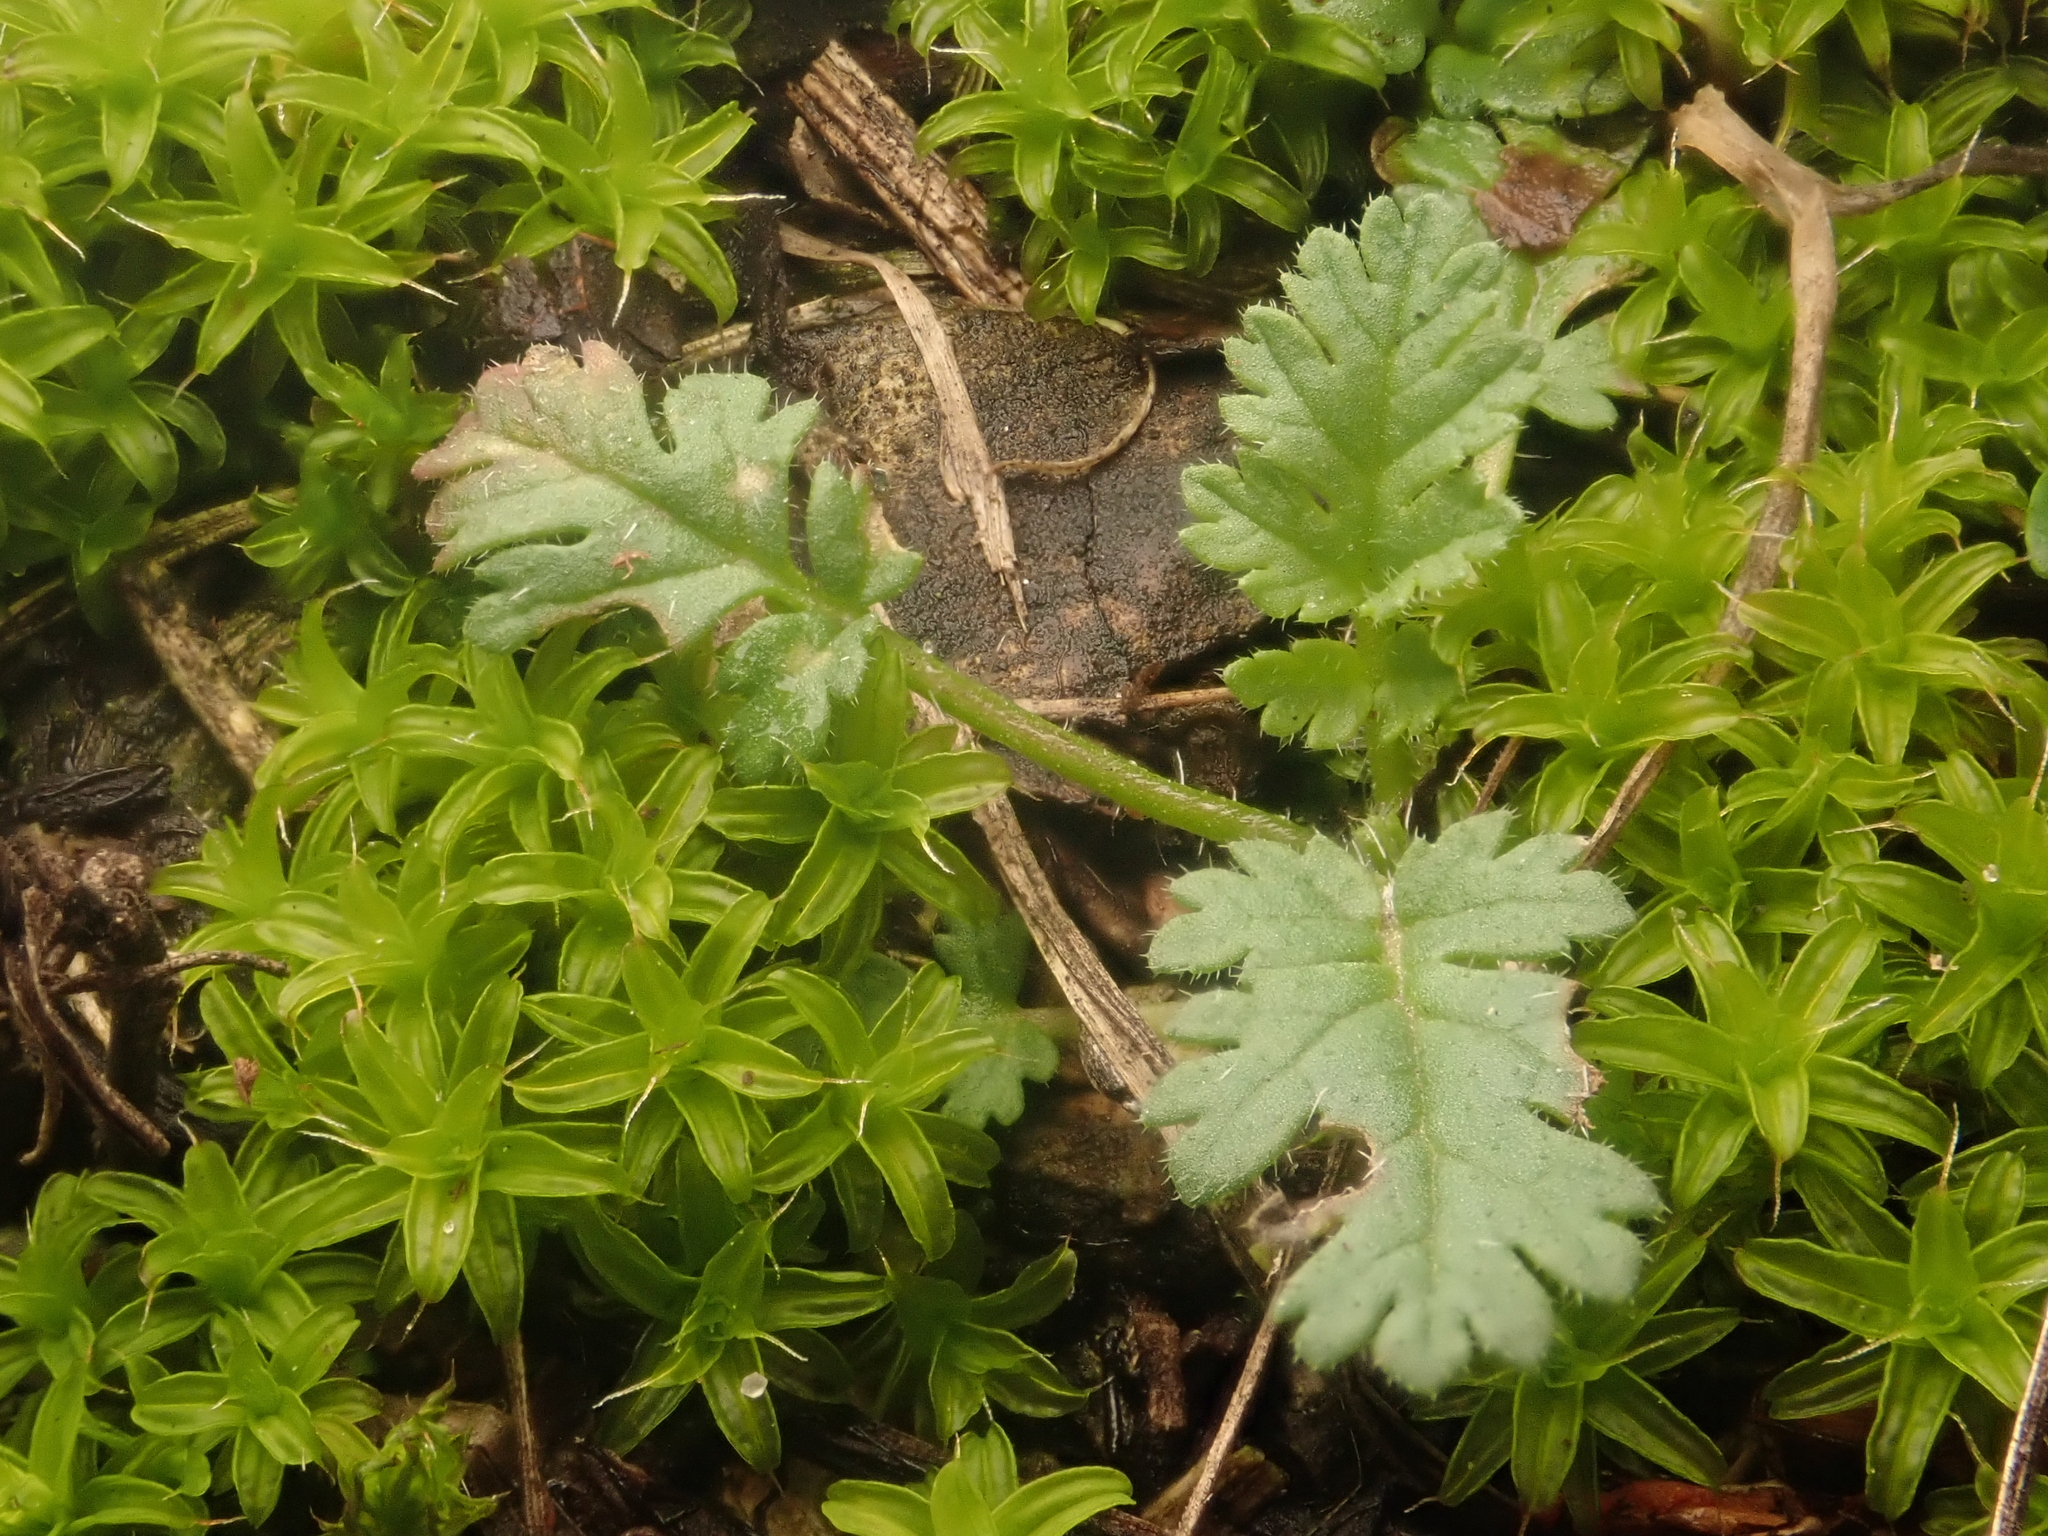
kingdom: Plantae
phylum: Tracheophyta
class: Magnoliopsida
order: Geraniales
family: Geraniaceae
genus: Erodium
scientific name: Erodium cicutarium
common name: Common stork's-bill
